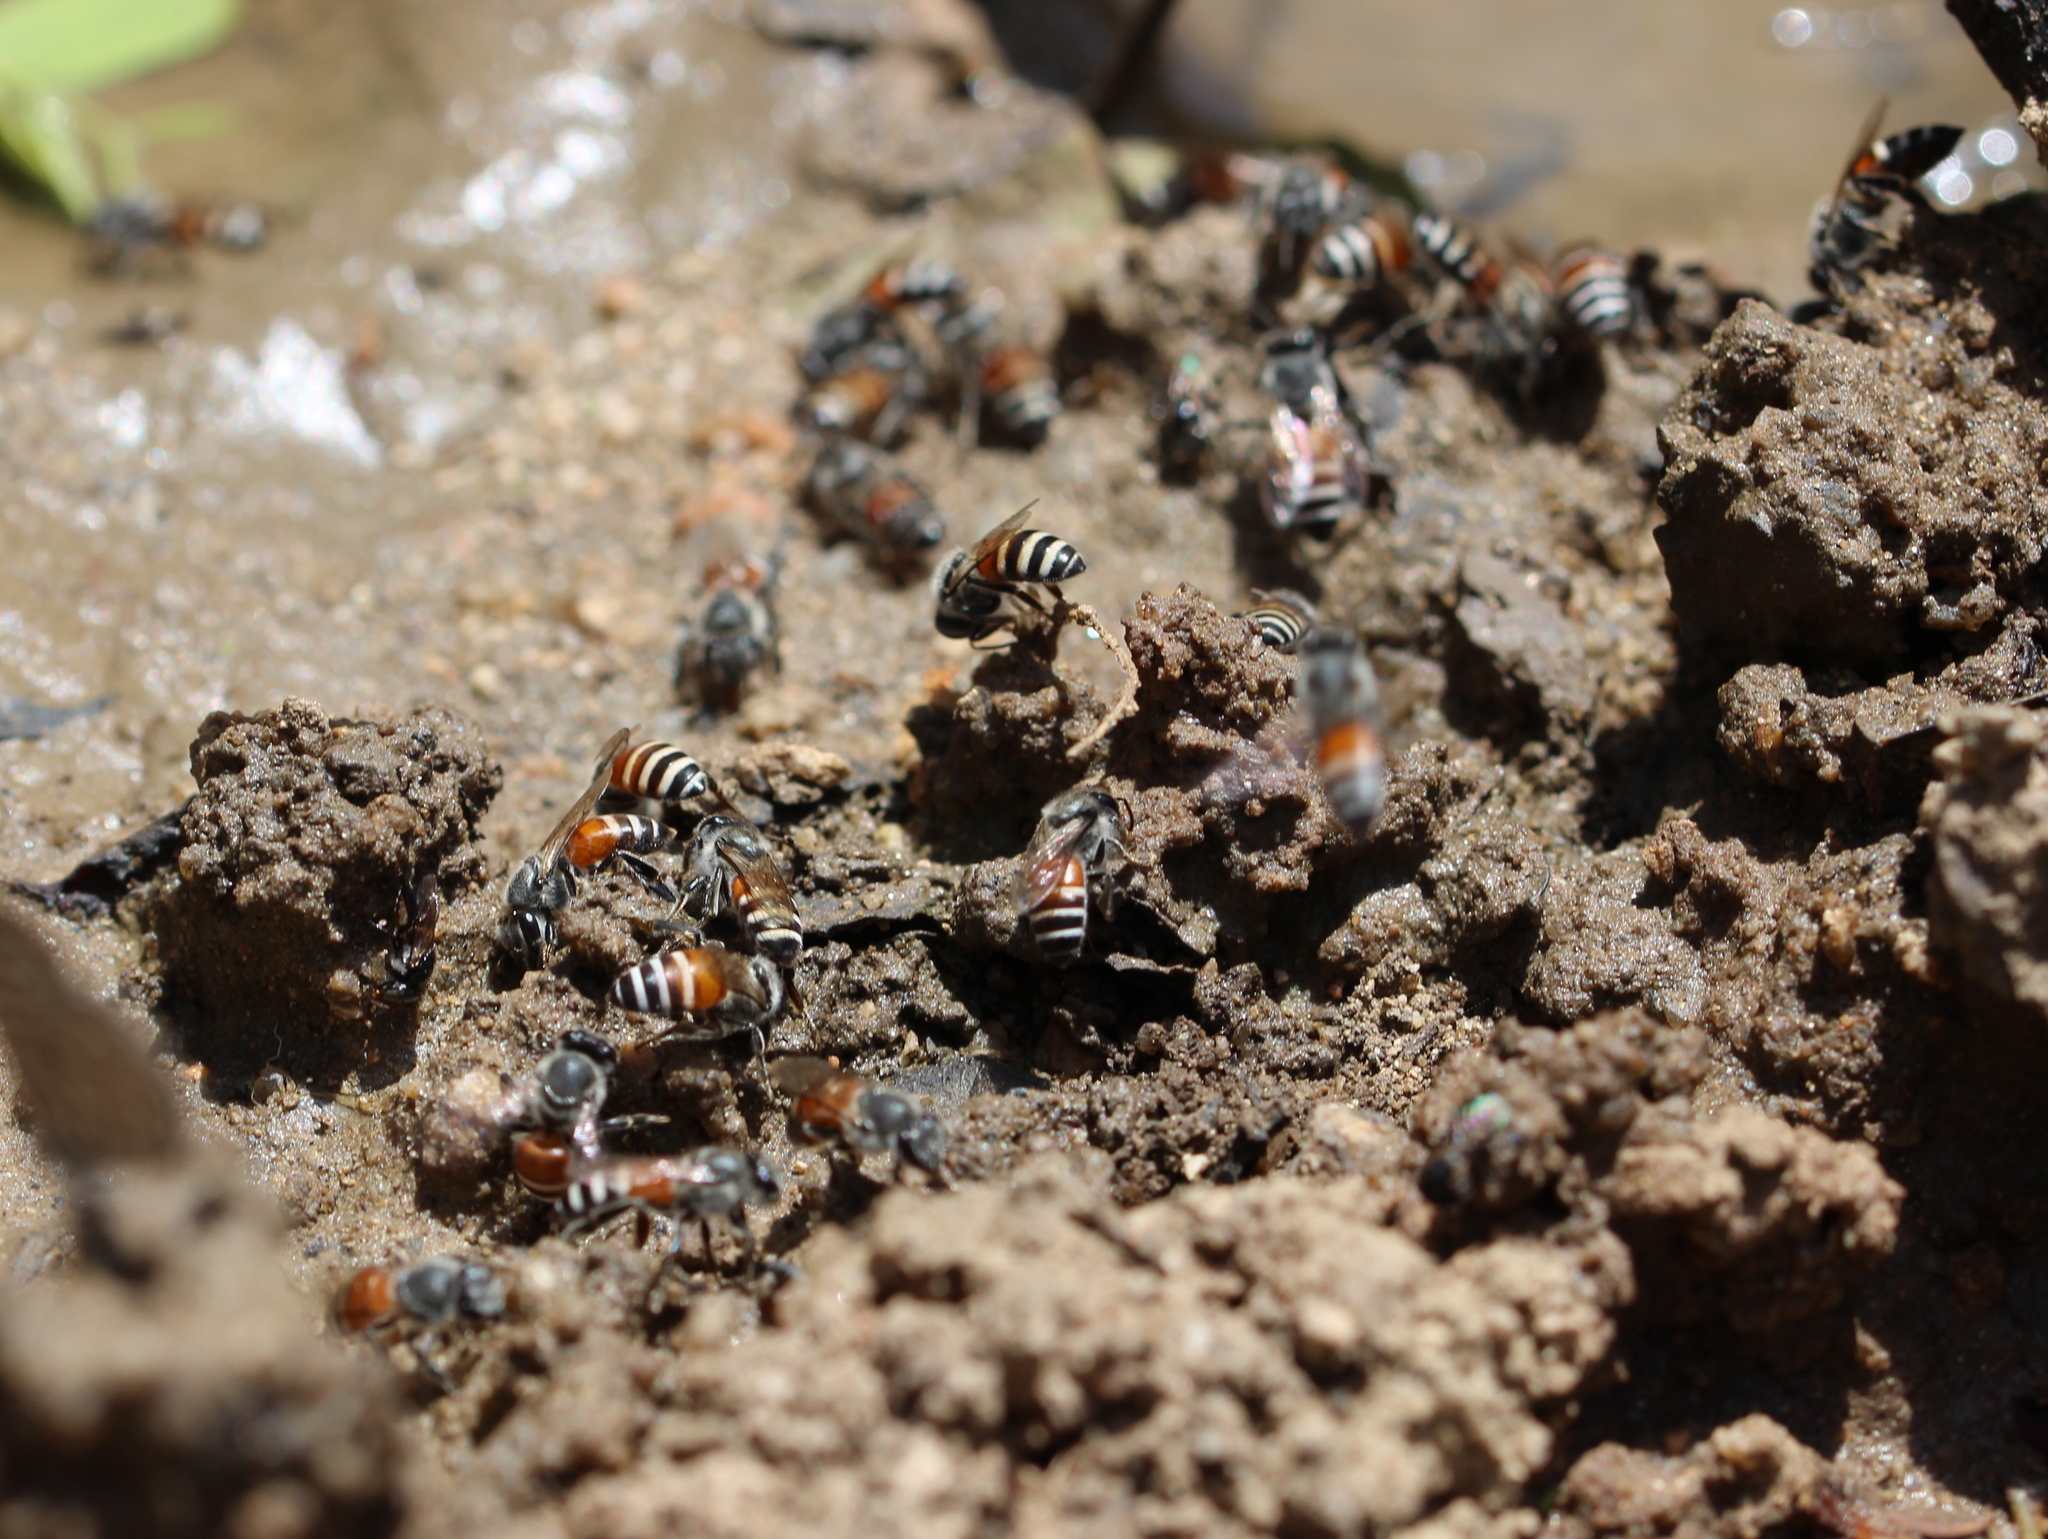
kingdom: Animalia
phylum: Arthropoda
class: Insecta
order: Hymenoptera
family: Apidae
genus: Apis
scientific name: Apis florea
